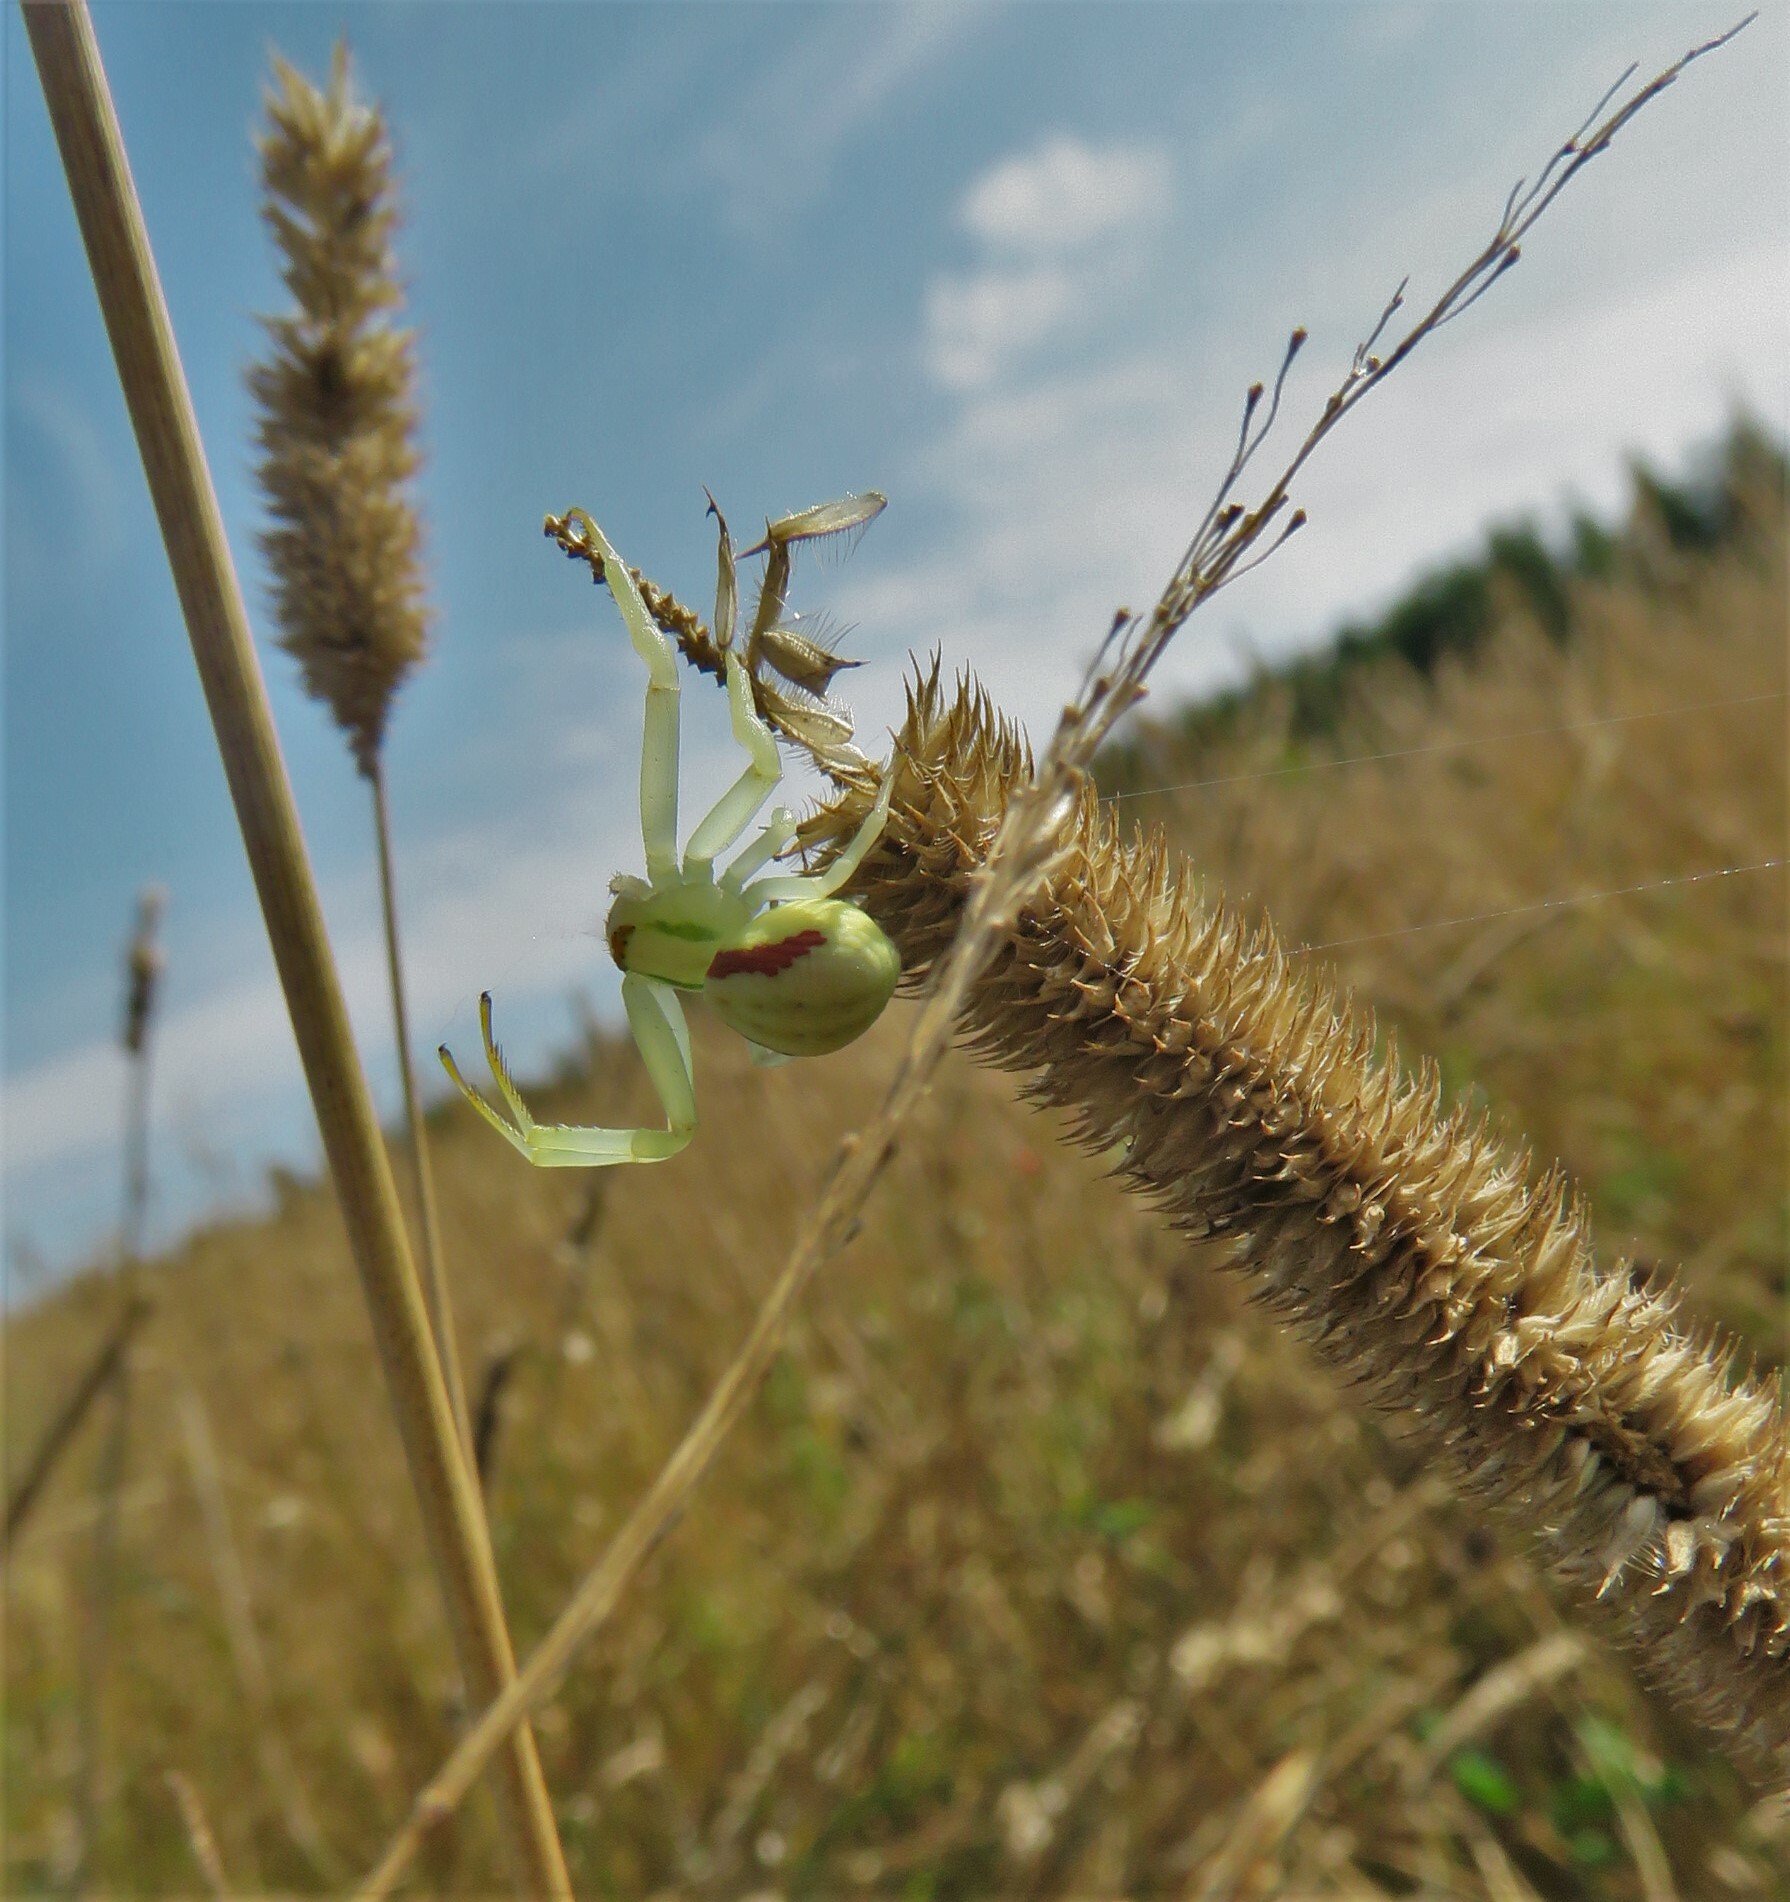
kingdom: Animalia
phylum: Arthropoda
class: Arachnida
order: Araneae
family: Thomisidae
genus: Misumena
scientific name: Misumena vatia
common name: Goldenrod crab spider
